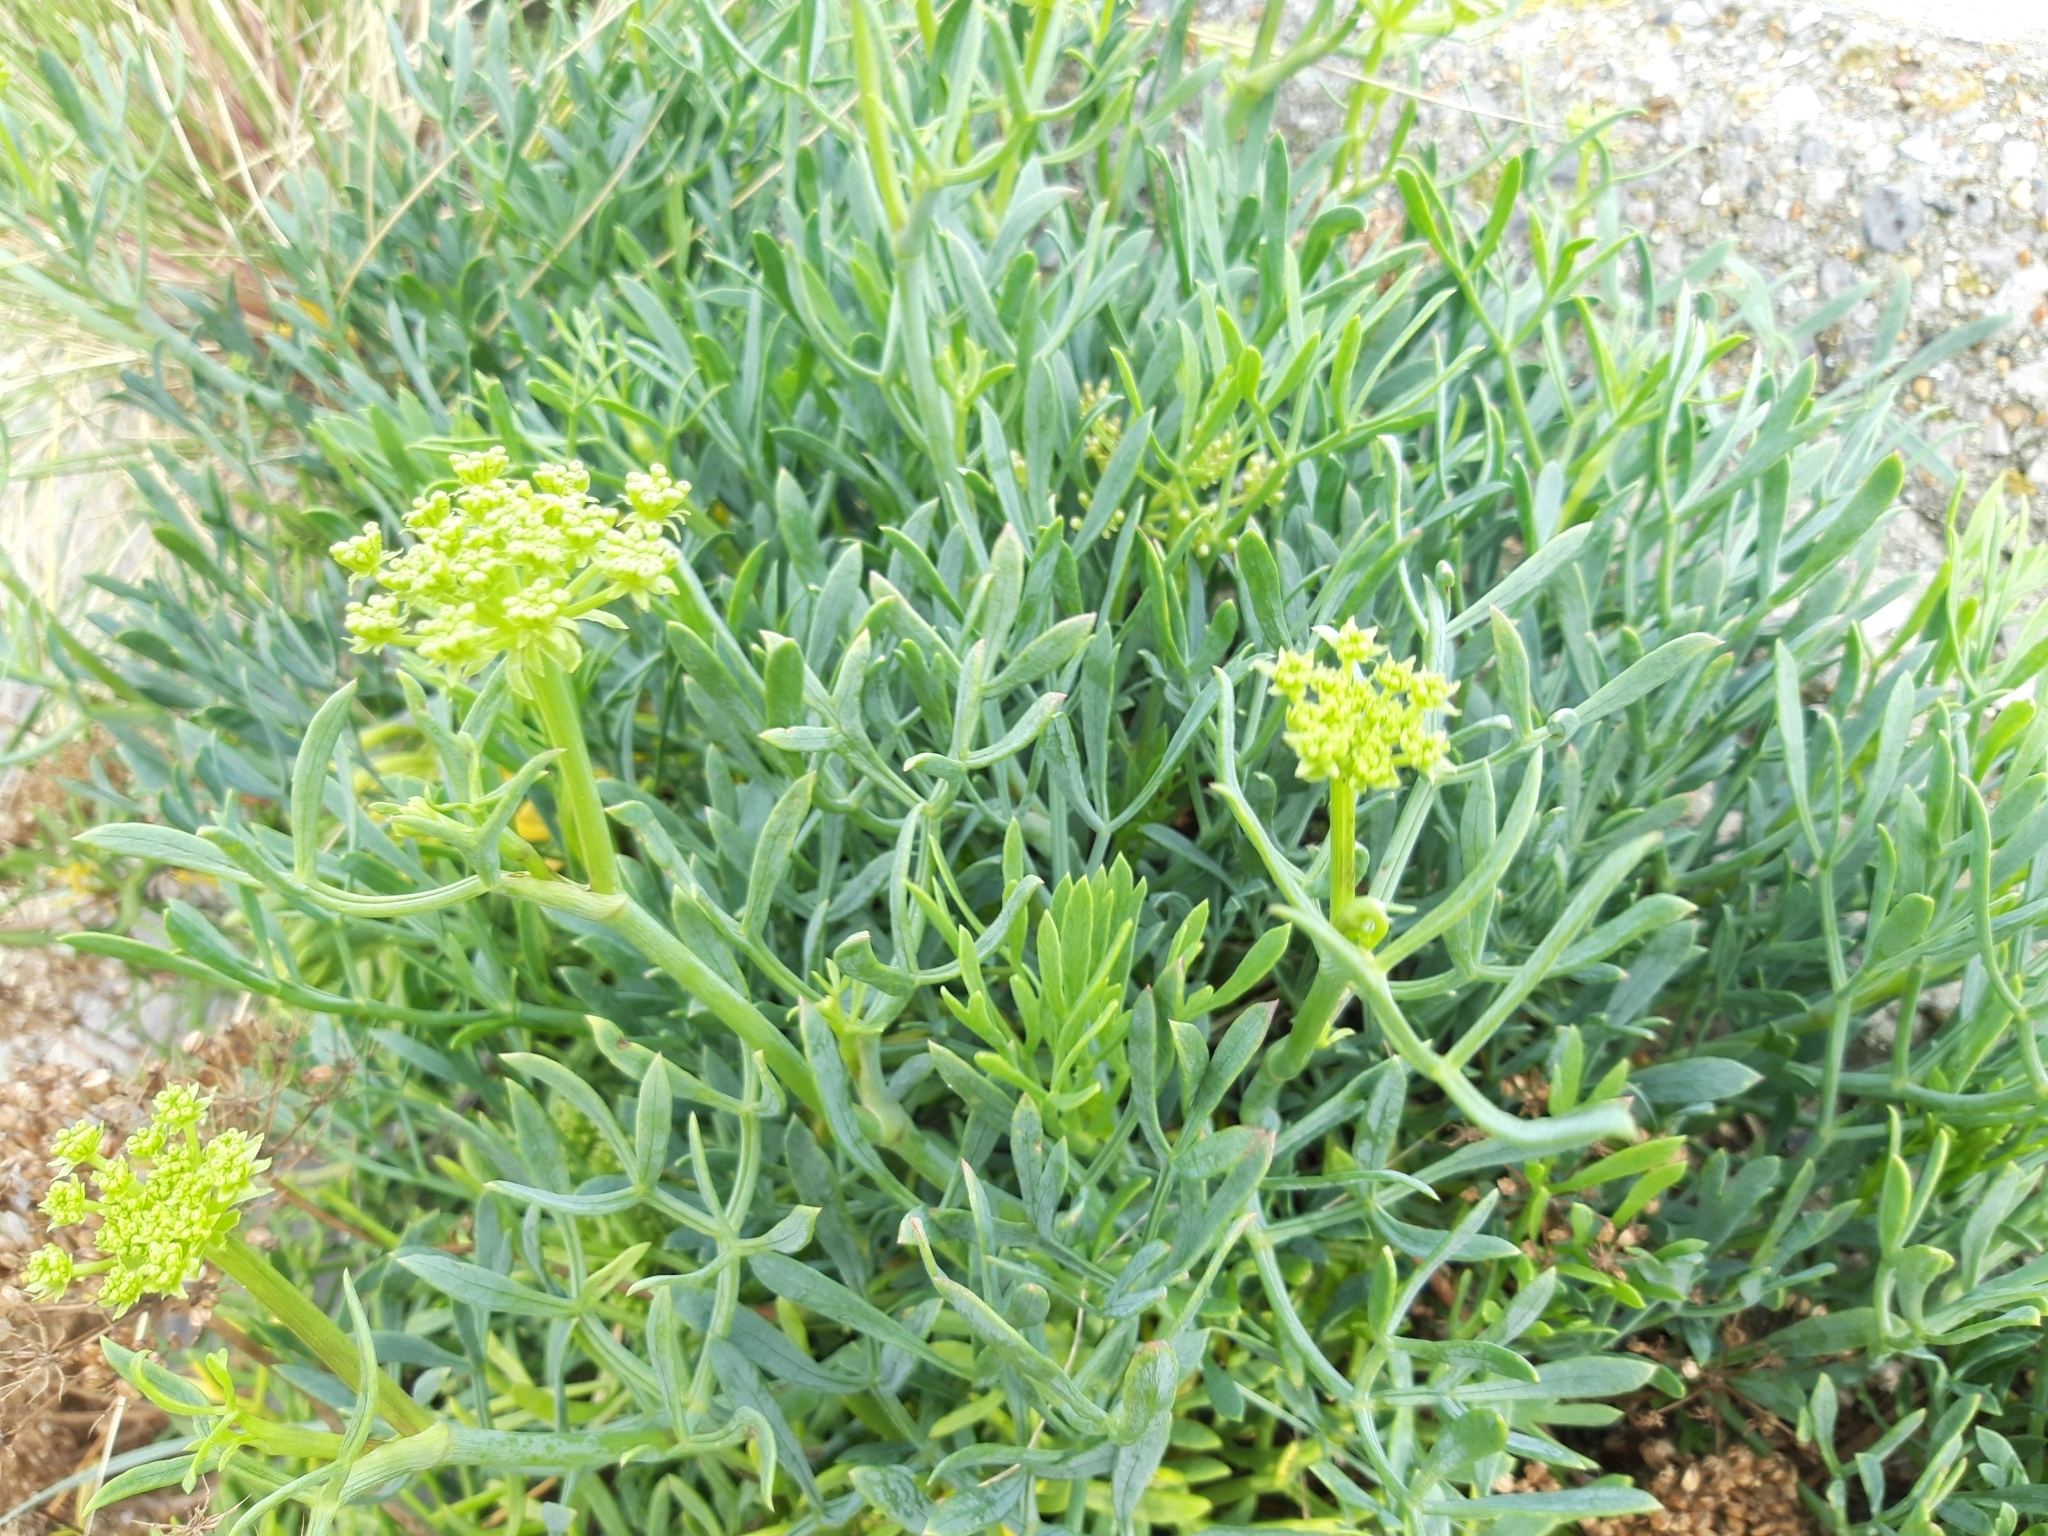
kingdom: Plantae
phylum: Tracheophyta
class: Magnoliopsida
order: Apiales
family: Apiaceae
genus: Crithmum
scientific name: Crithmum maritimum
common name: Rock samphire
